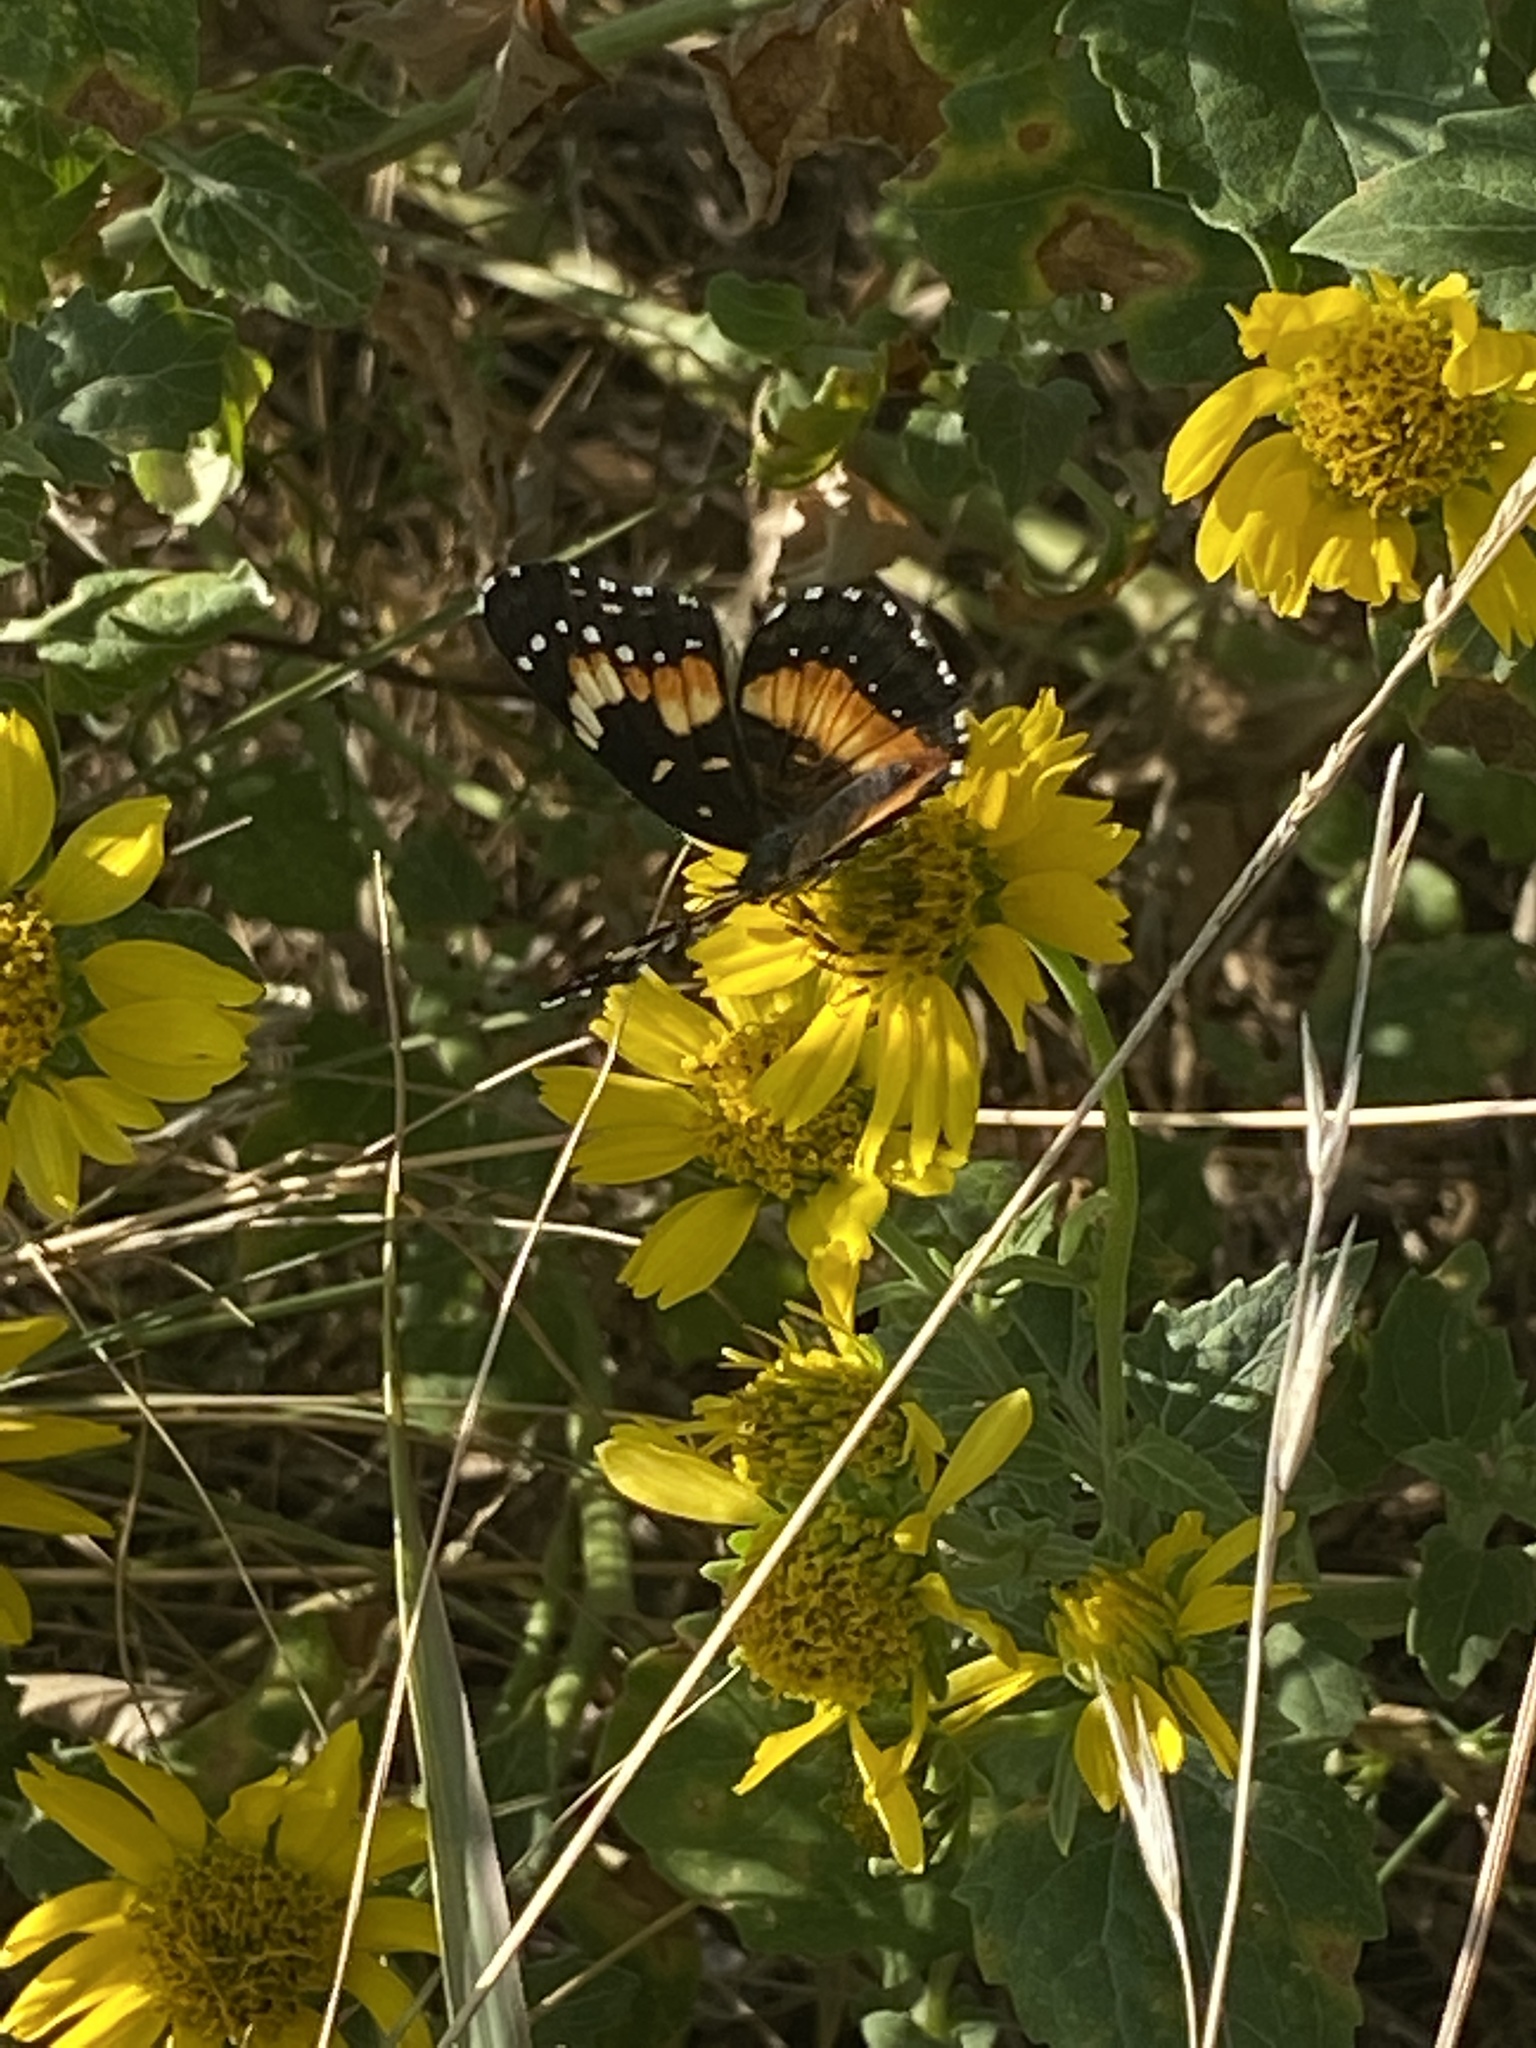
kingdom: Animalia
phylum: Arthropoda
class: Insecta
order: Lepidoptera
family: Nymphalidae
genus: Chlosyne
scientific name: Chlosyne lacinia
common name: Bordered patch
